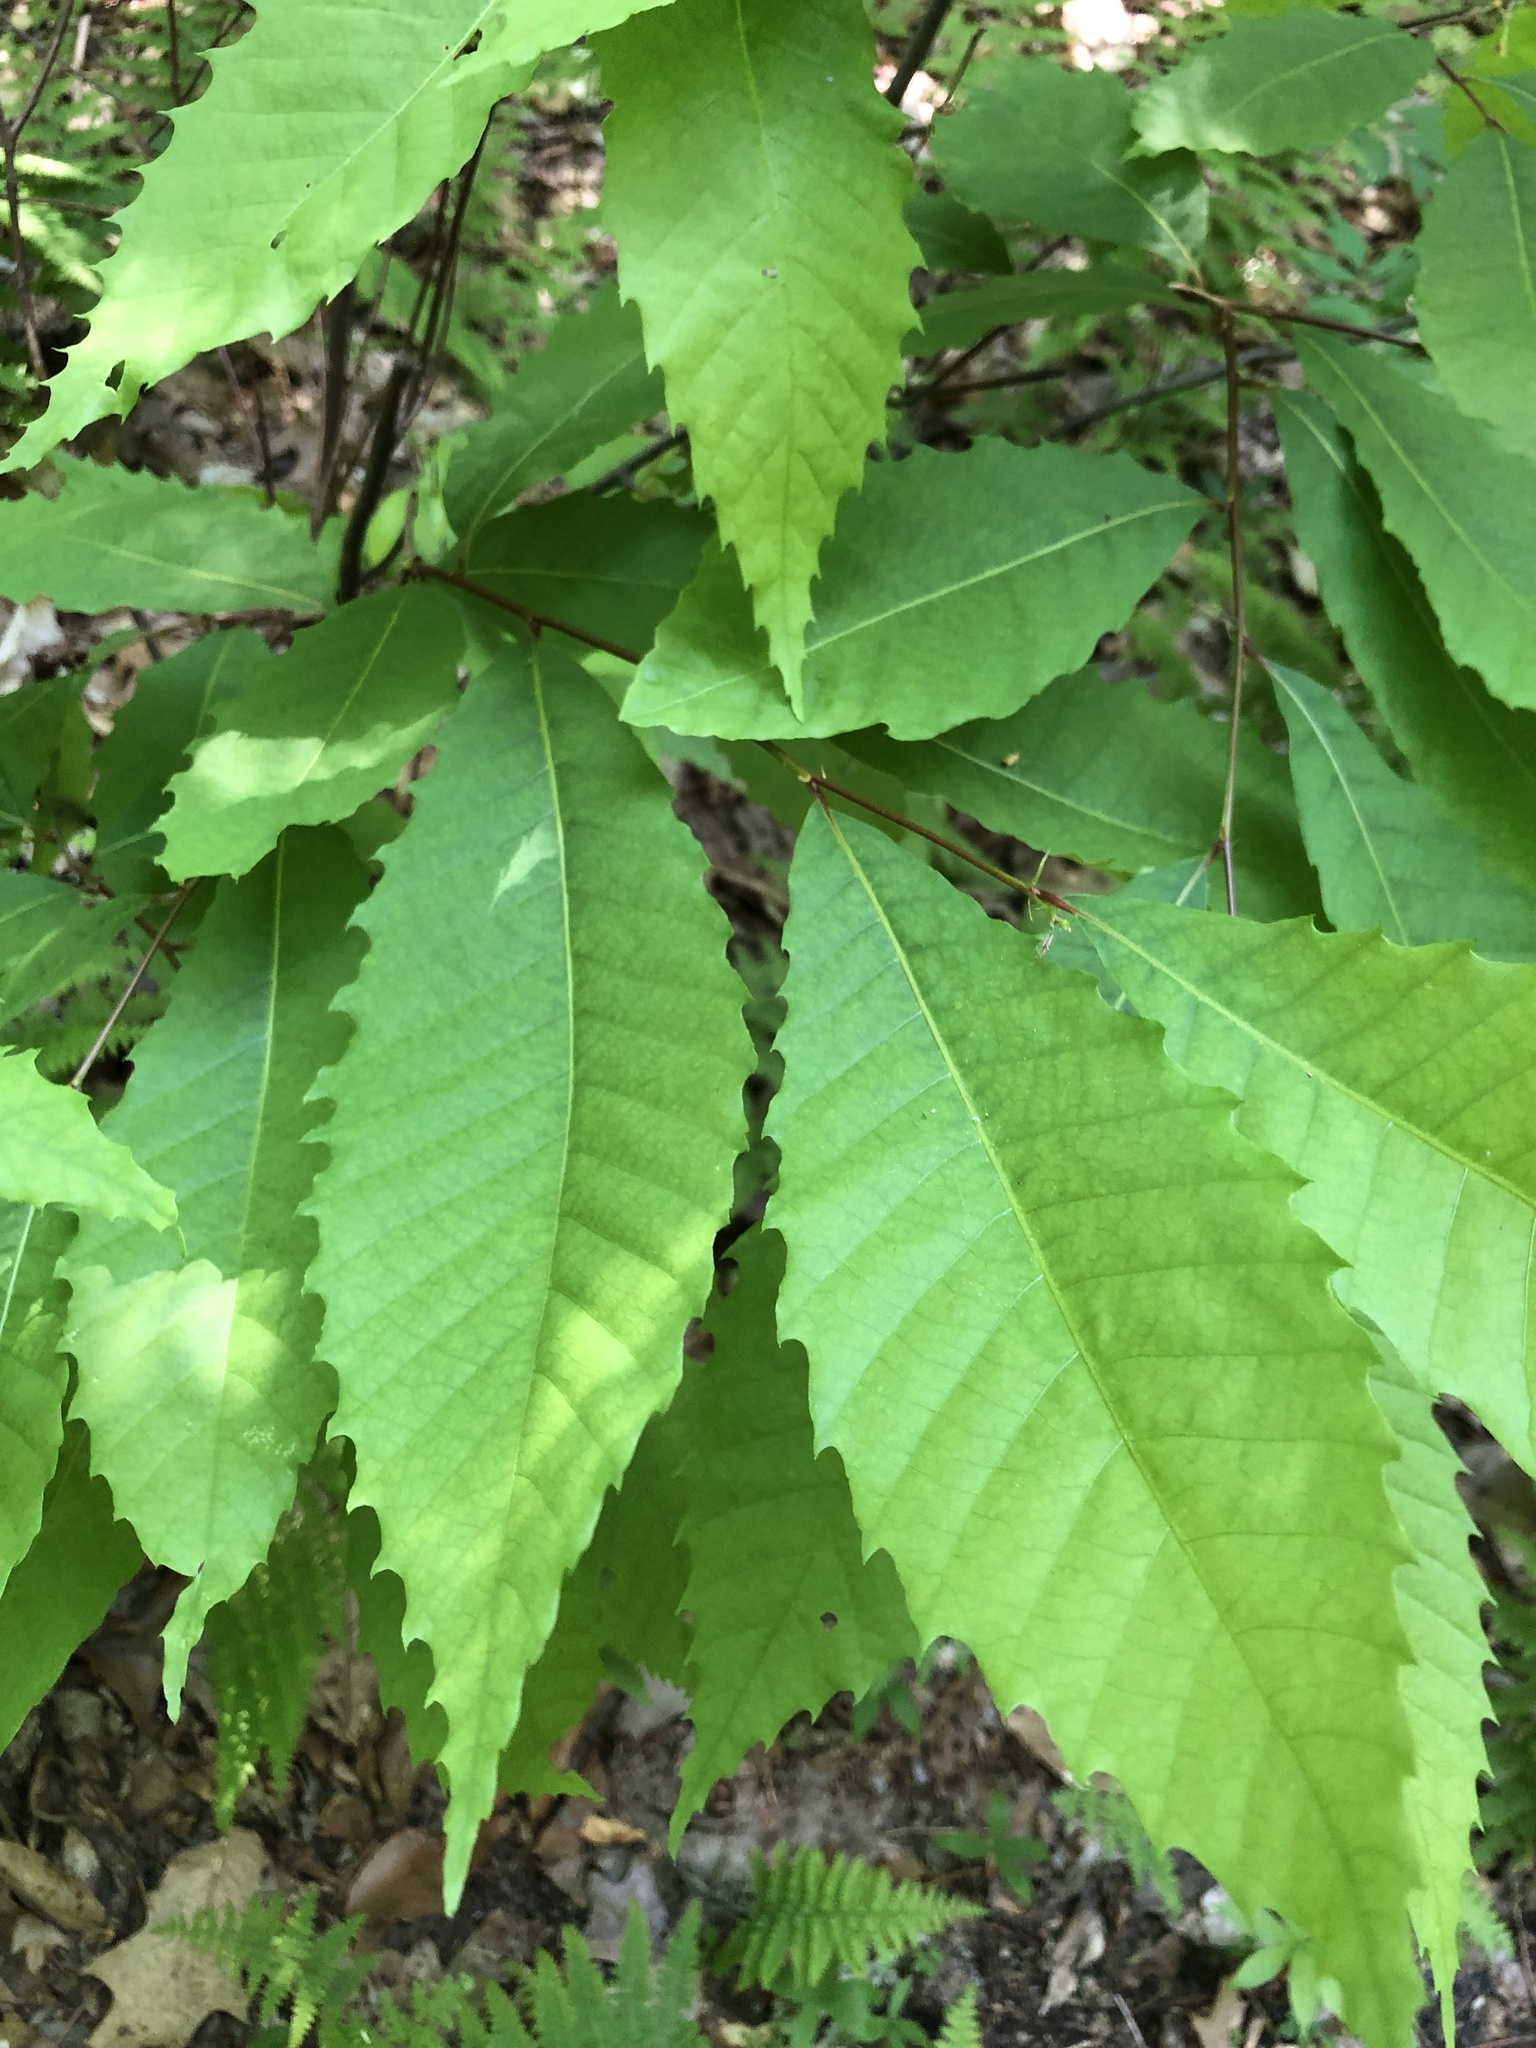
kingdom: Plantae
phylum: Tracheophyta
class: Magnoliopsida
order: Fagales
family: Fagaceae
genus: Castanea
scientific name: Castanea dentata
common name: American chestnut
